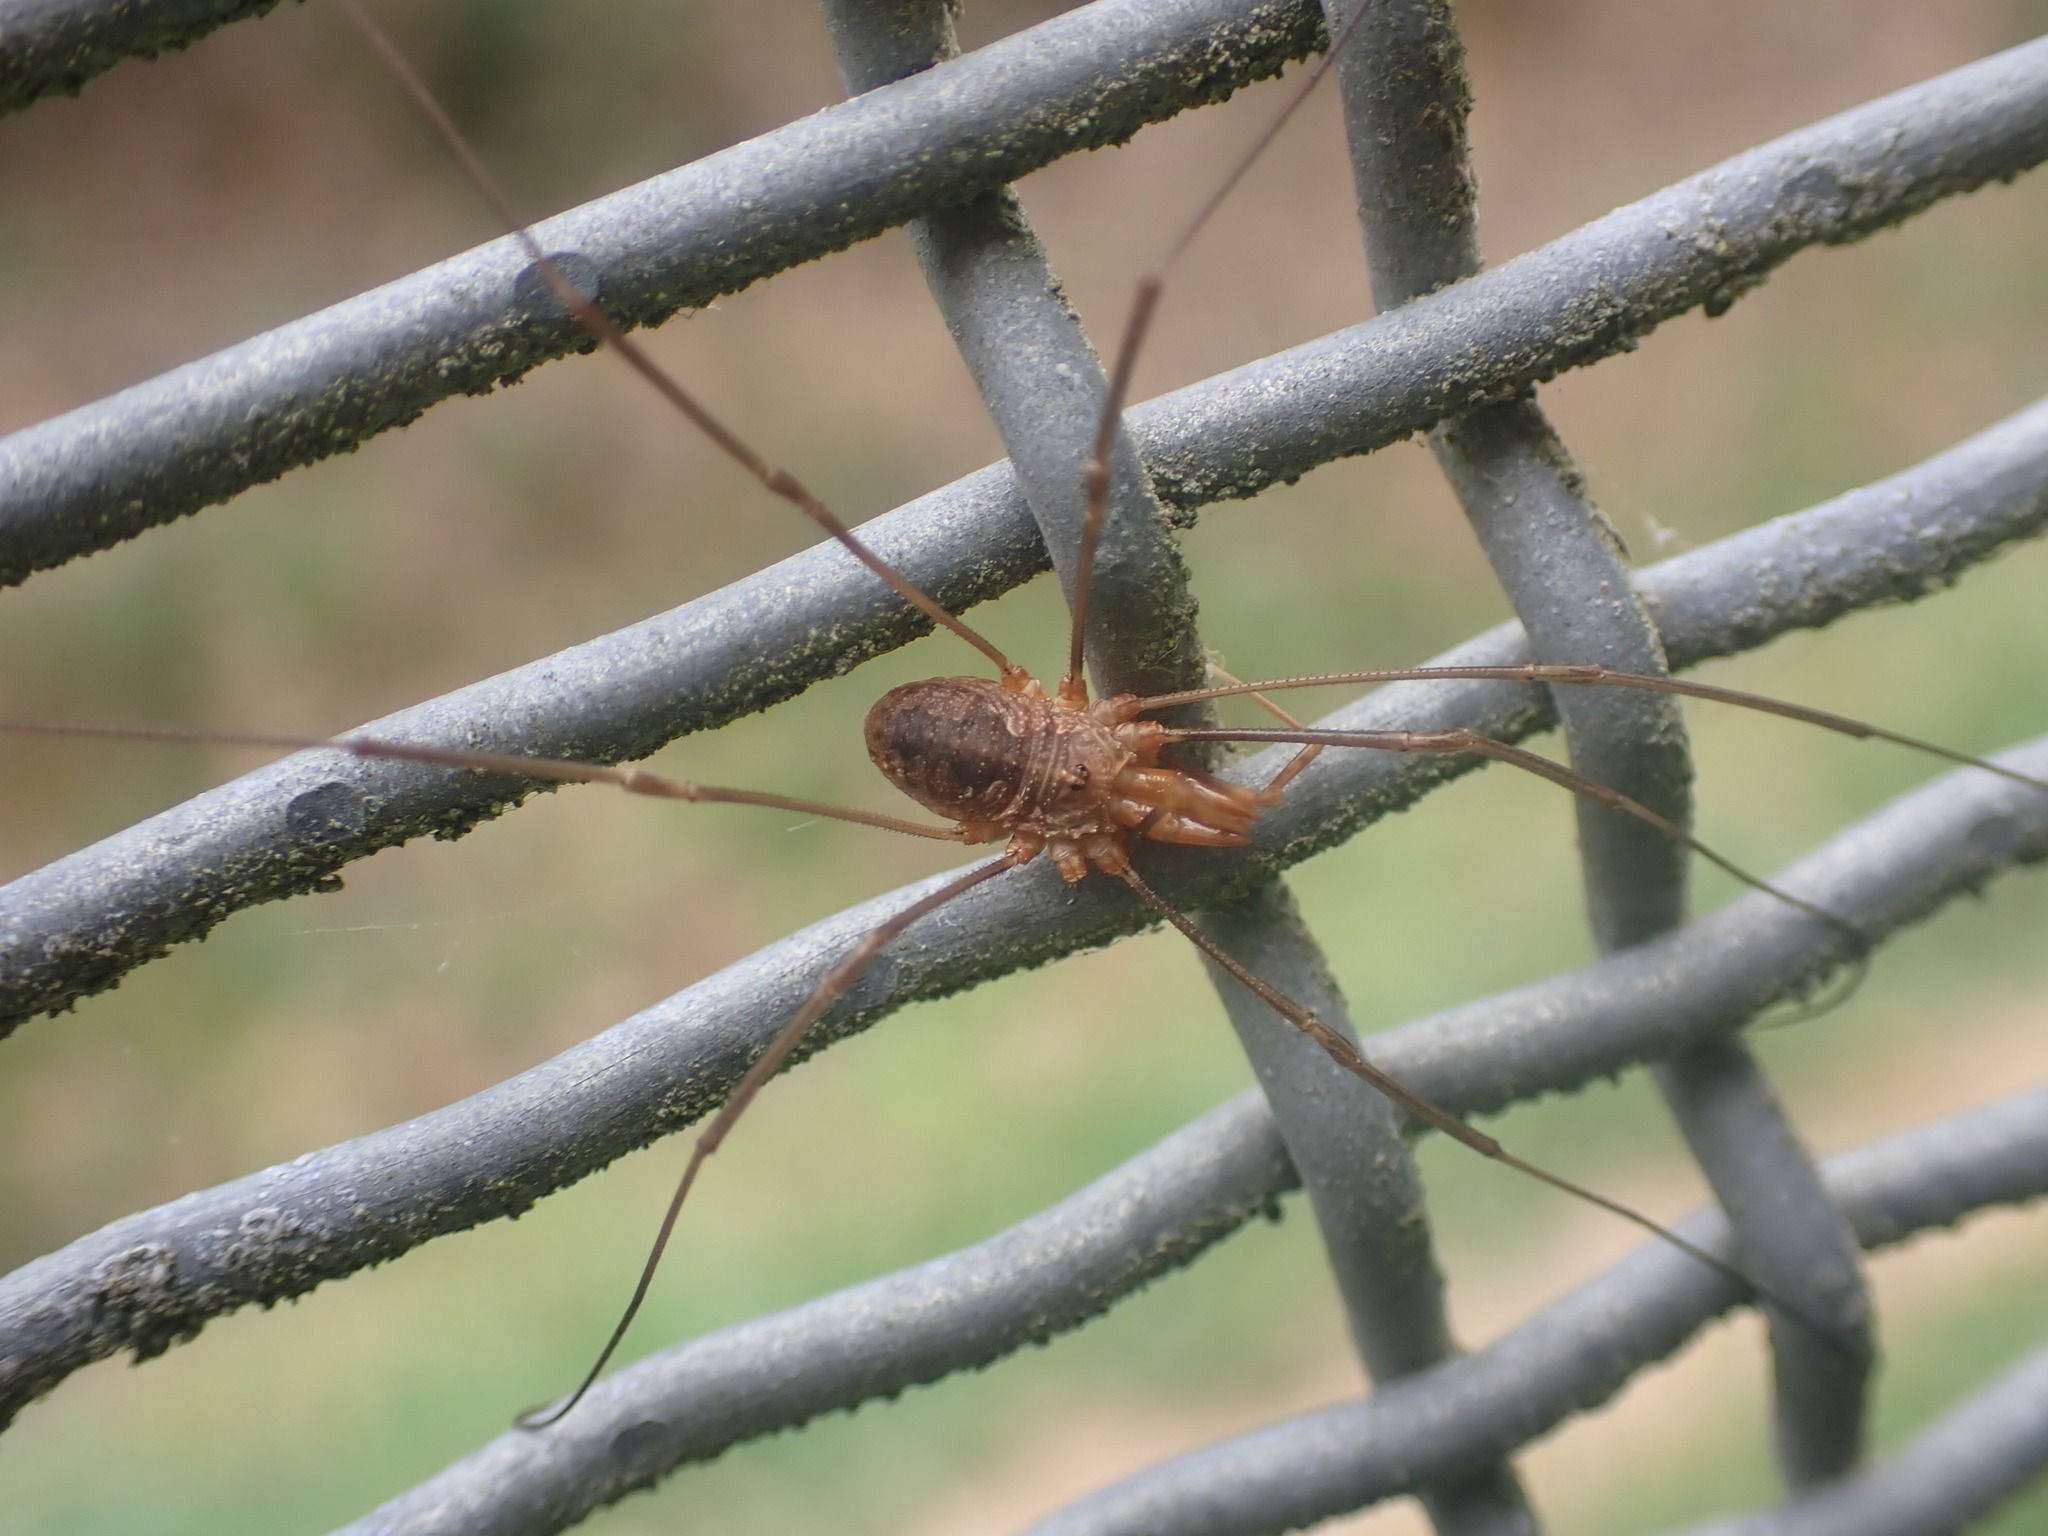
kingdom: Animalia
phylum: Arthropoda
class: Arachnida
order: Opiliones
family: Phalangiidae
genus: Phalangium
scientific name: Phalangium opilio
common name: Daddy longleg
